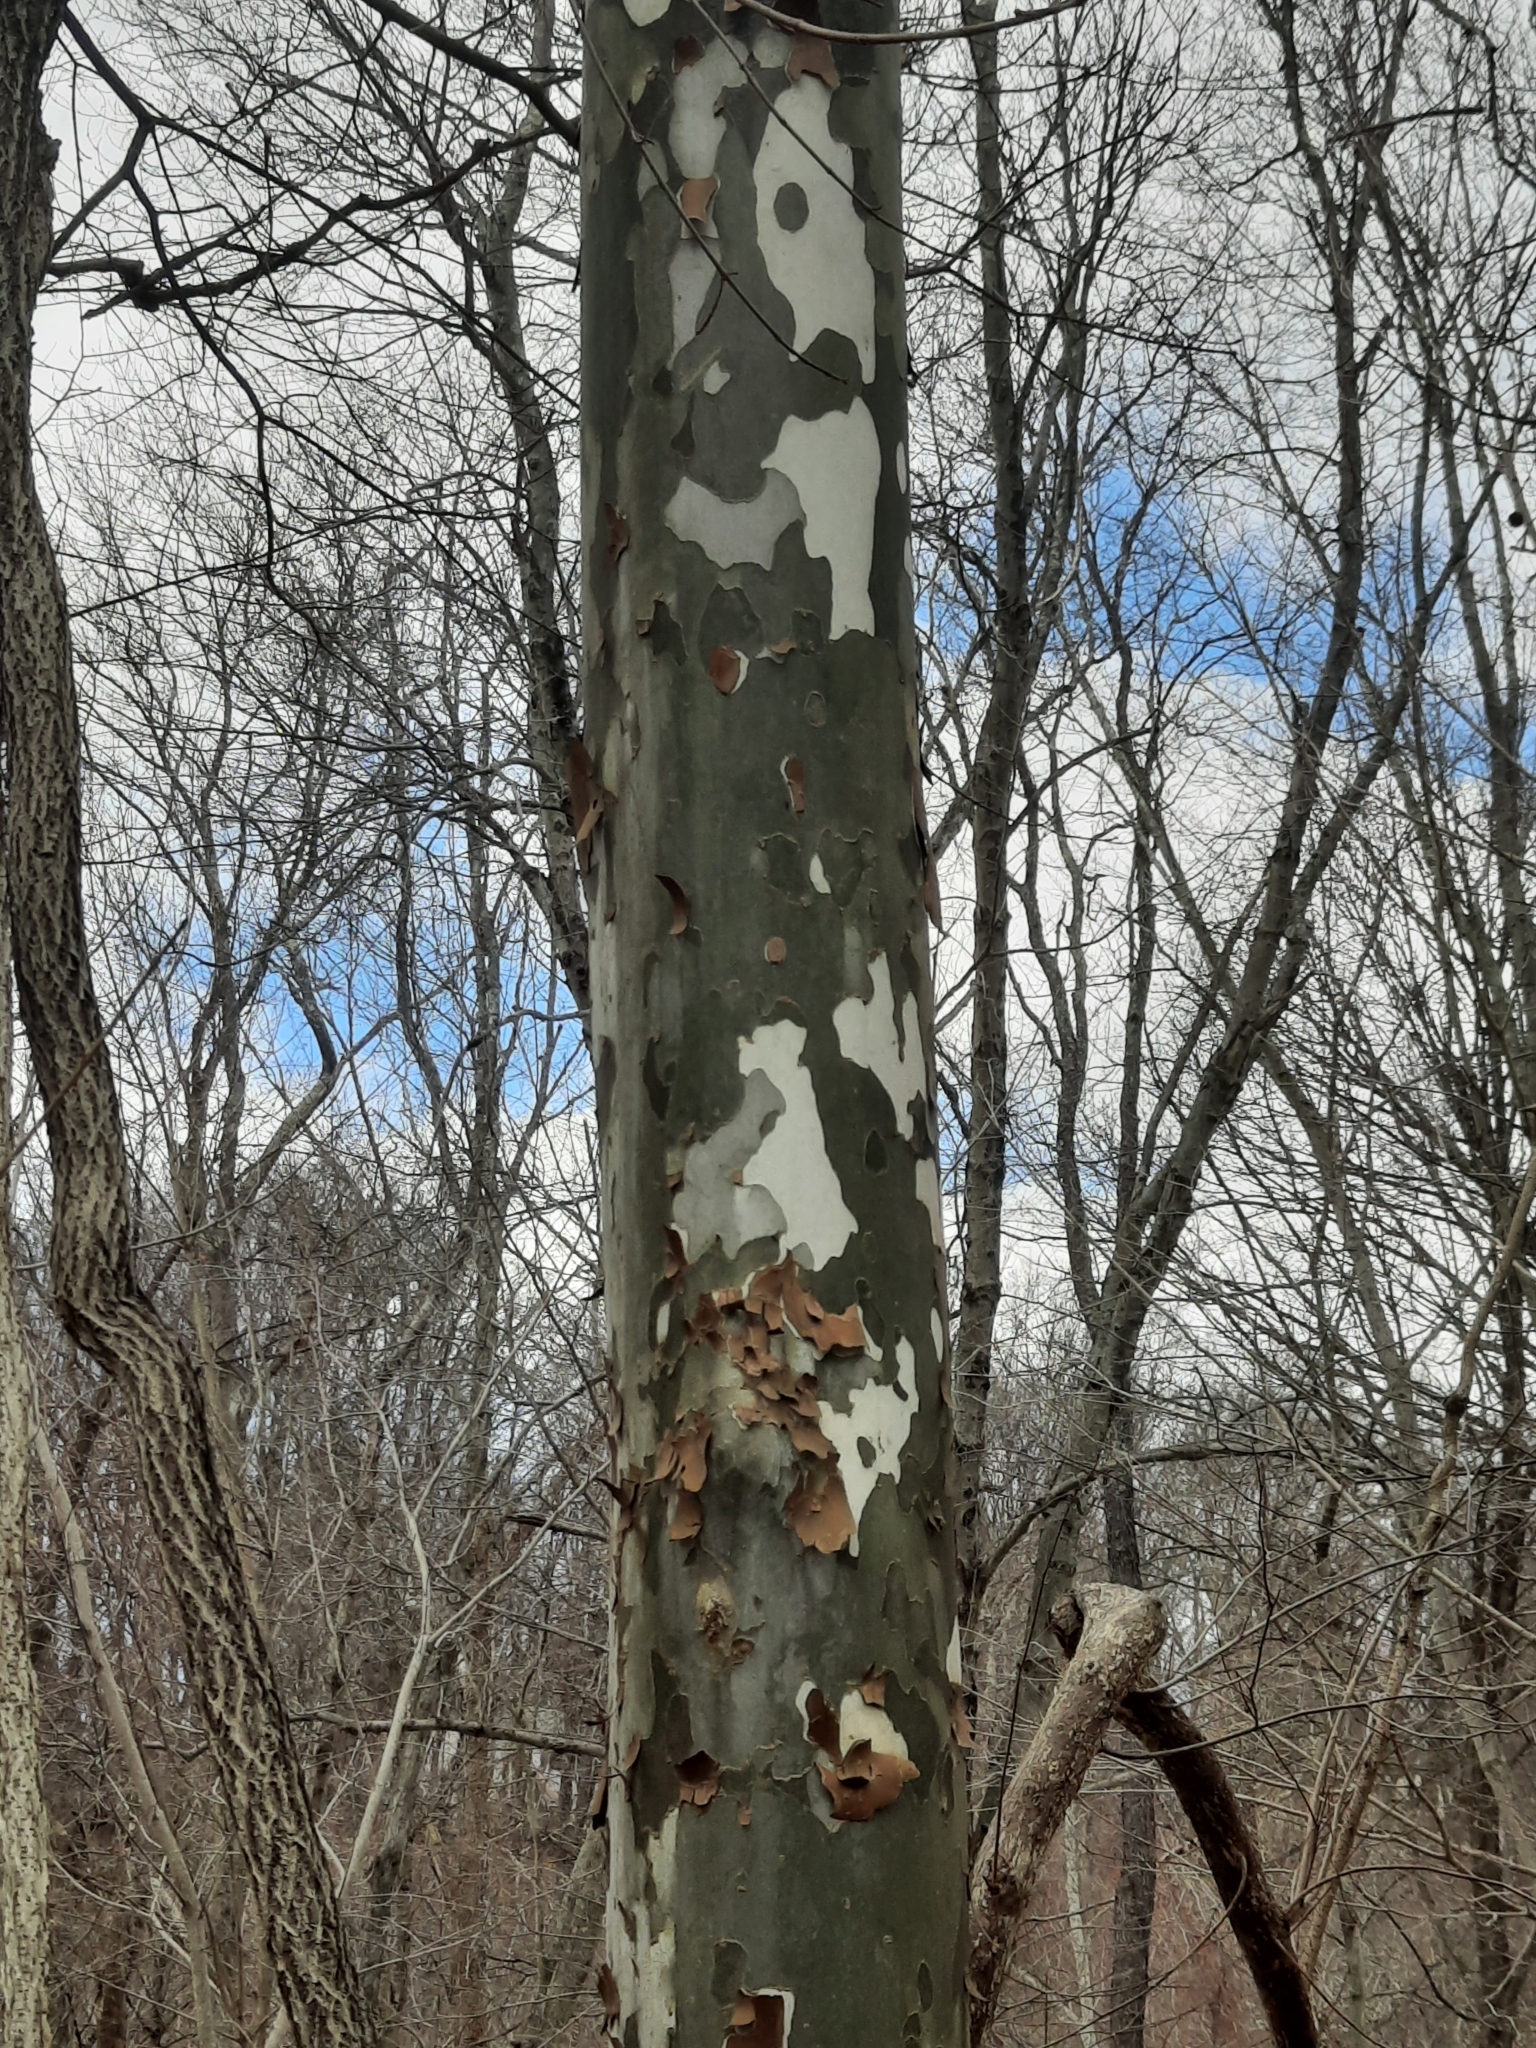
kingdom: Plantae
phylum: Tracheophyta
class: Magnoliopsida
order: Proteales
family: Platanaceae
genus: Platanus
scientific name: Platanus occidentalis
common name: American sycamore
